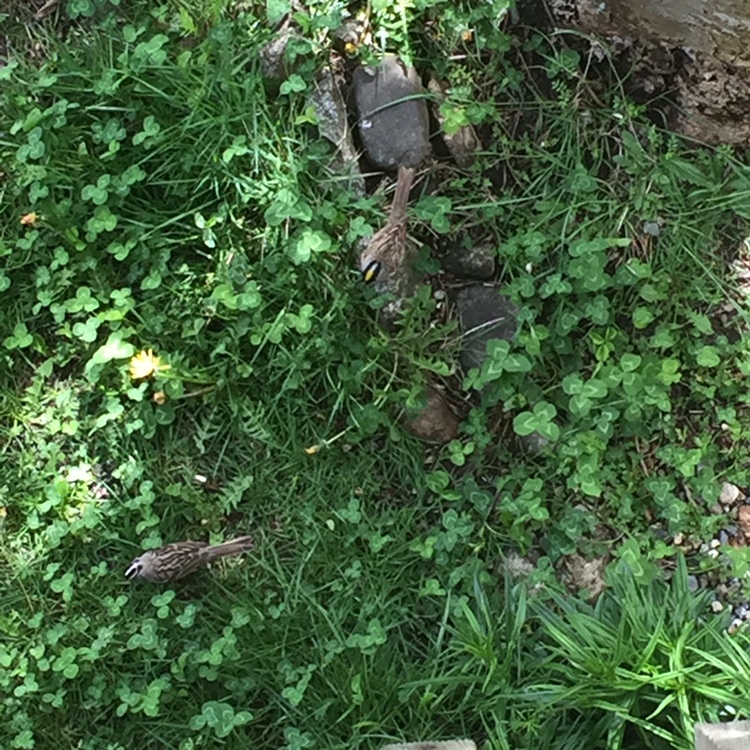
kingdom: Animalia
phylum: Chordata
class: Aves
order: Passeriformes
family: Passerellidae
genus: Zonotrichia
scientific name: Zonotrichia leucophrys
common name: White-crowned sparrow
